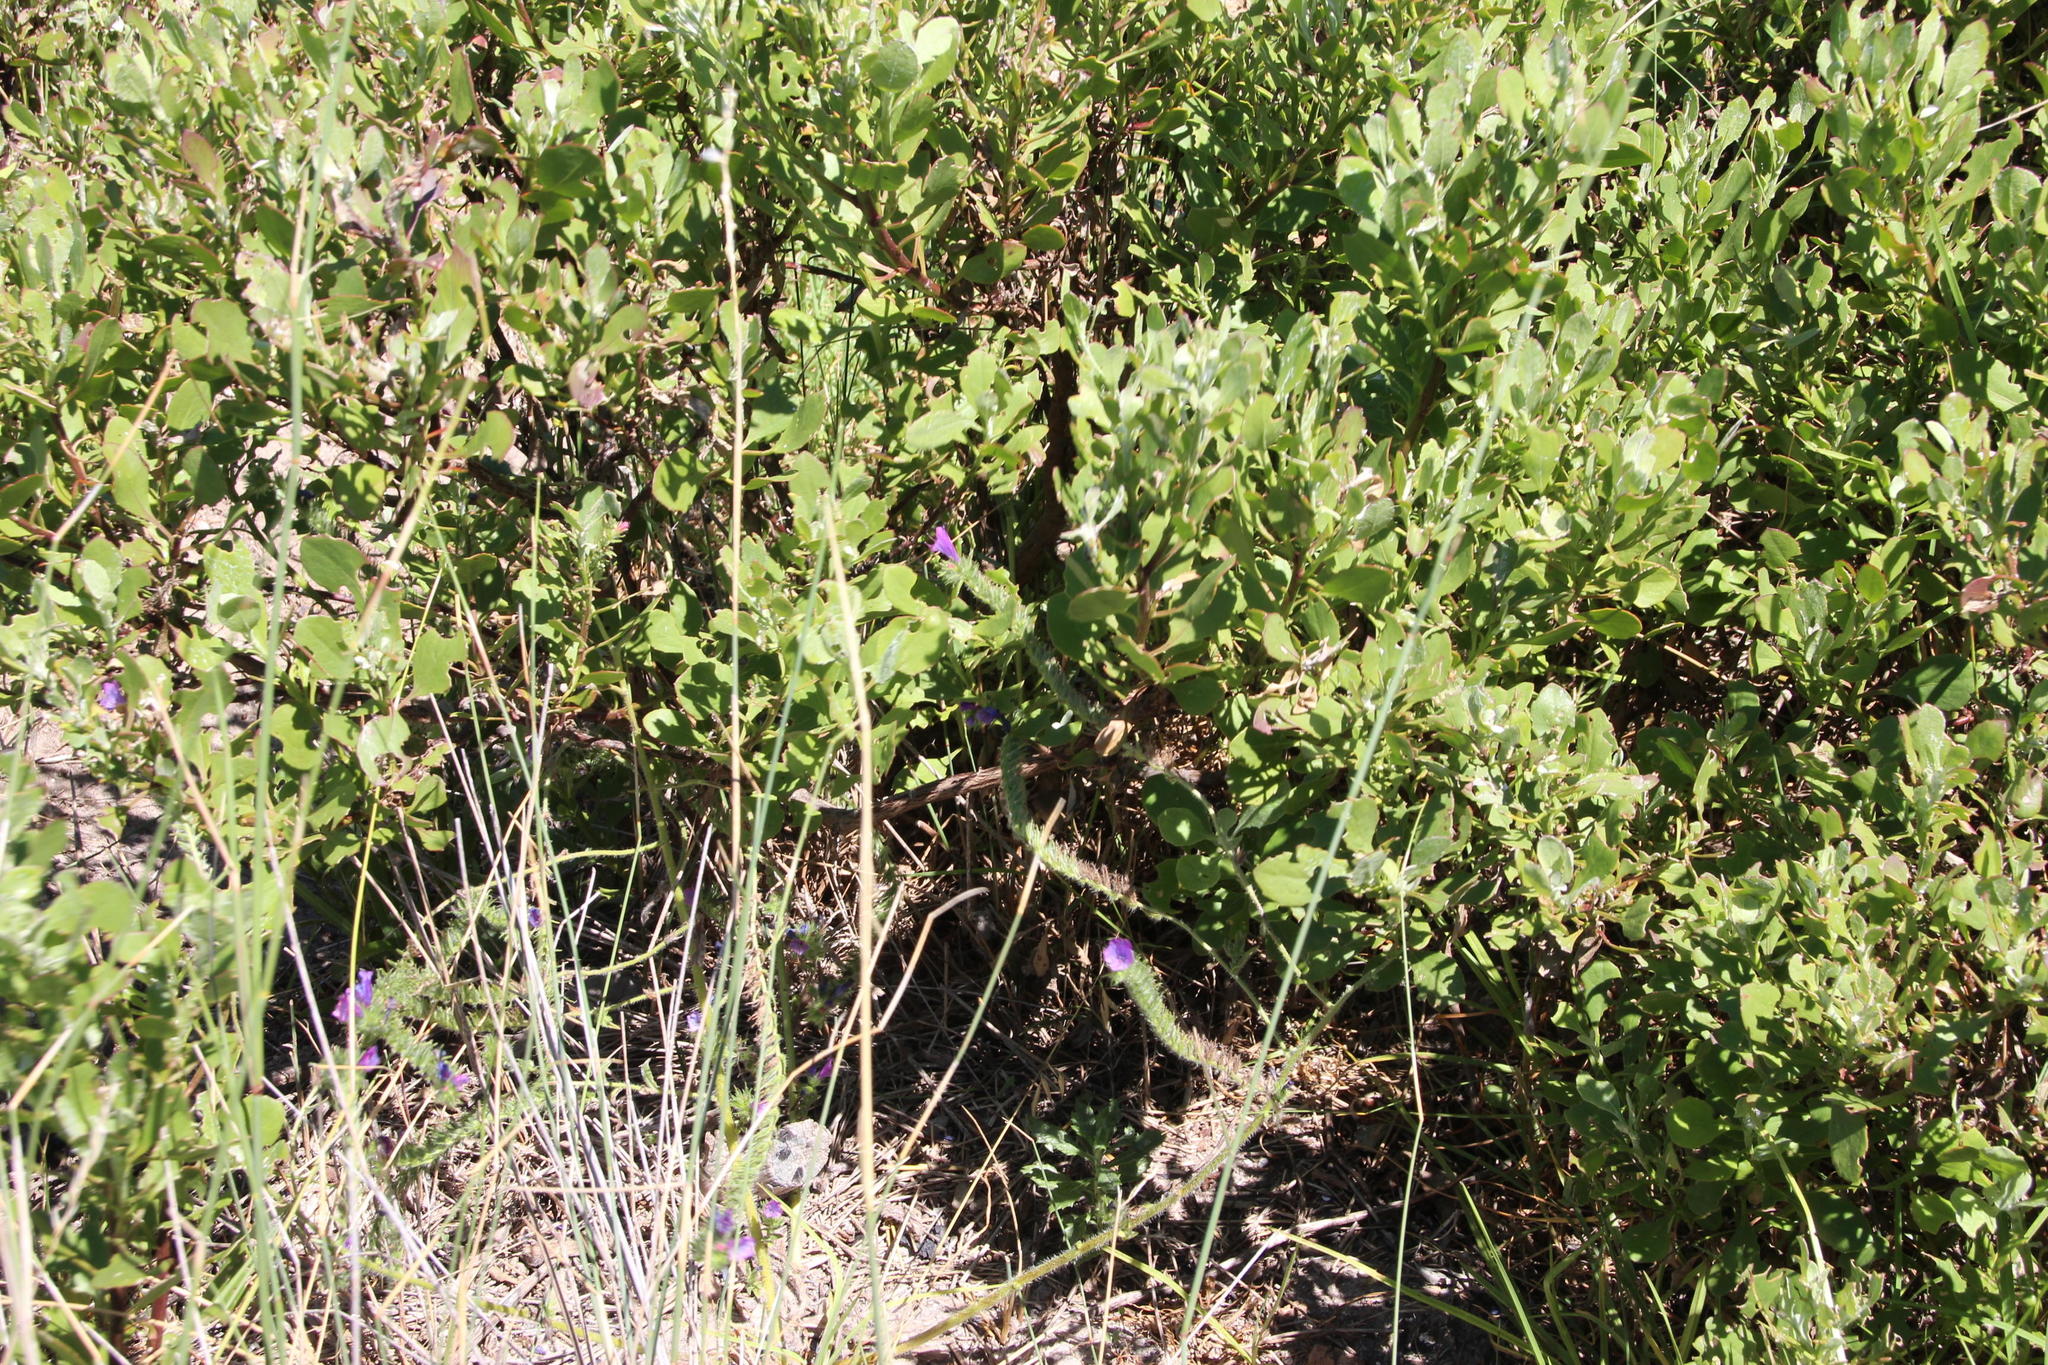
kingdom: Plantae
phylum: Tracheophyta
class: Magnoliopsida
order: Boraginales
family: Boraginaceae
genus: Echium
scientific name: Echium plantagineum
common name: Purple viper's-bugloss
